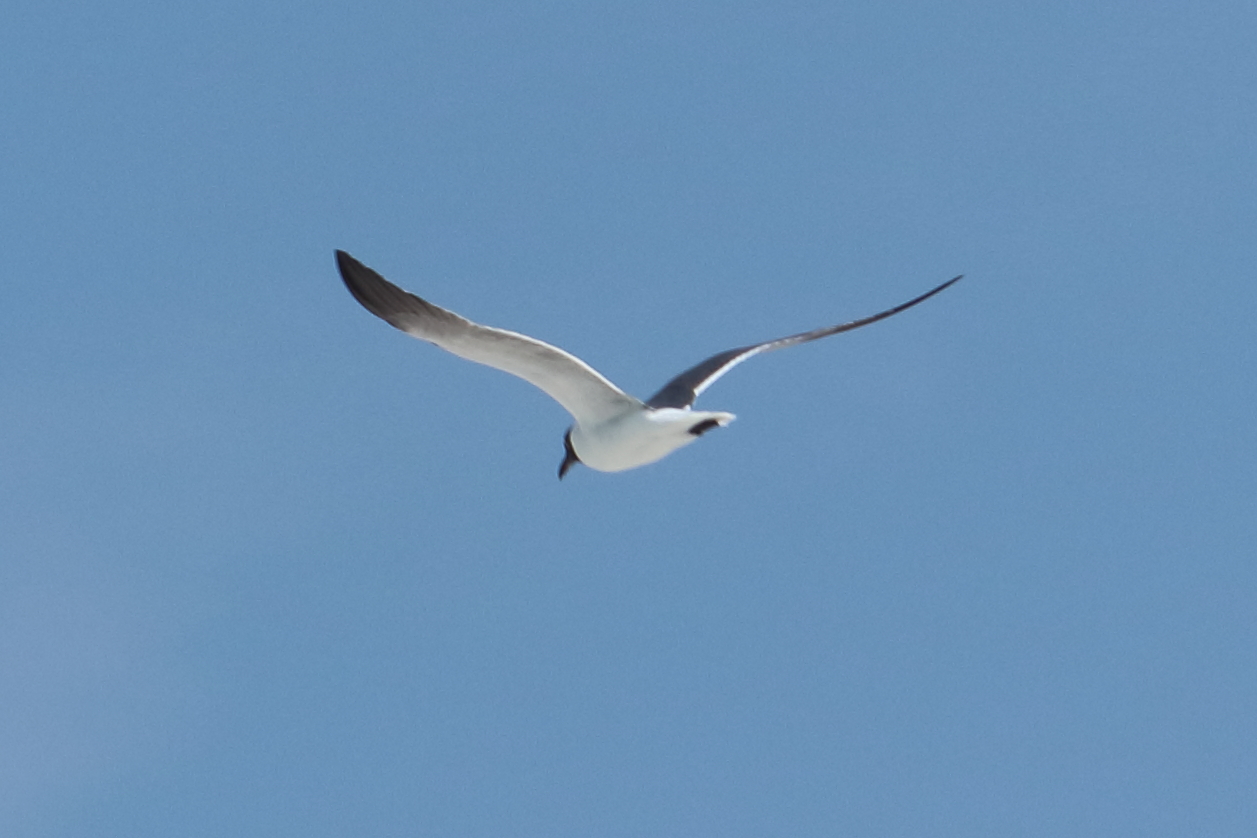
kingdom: Animalia
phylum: Chordata
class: Aves
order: Charadriiformes
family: Laridae
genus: Leucophaeus
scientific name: Leucophaeus atricilla
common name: Laughing gull
